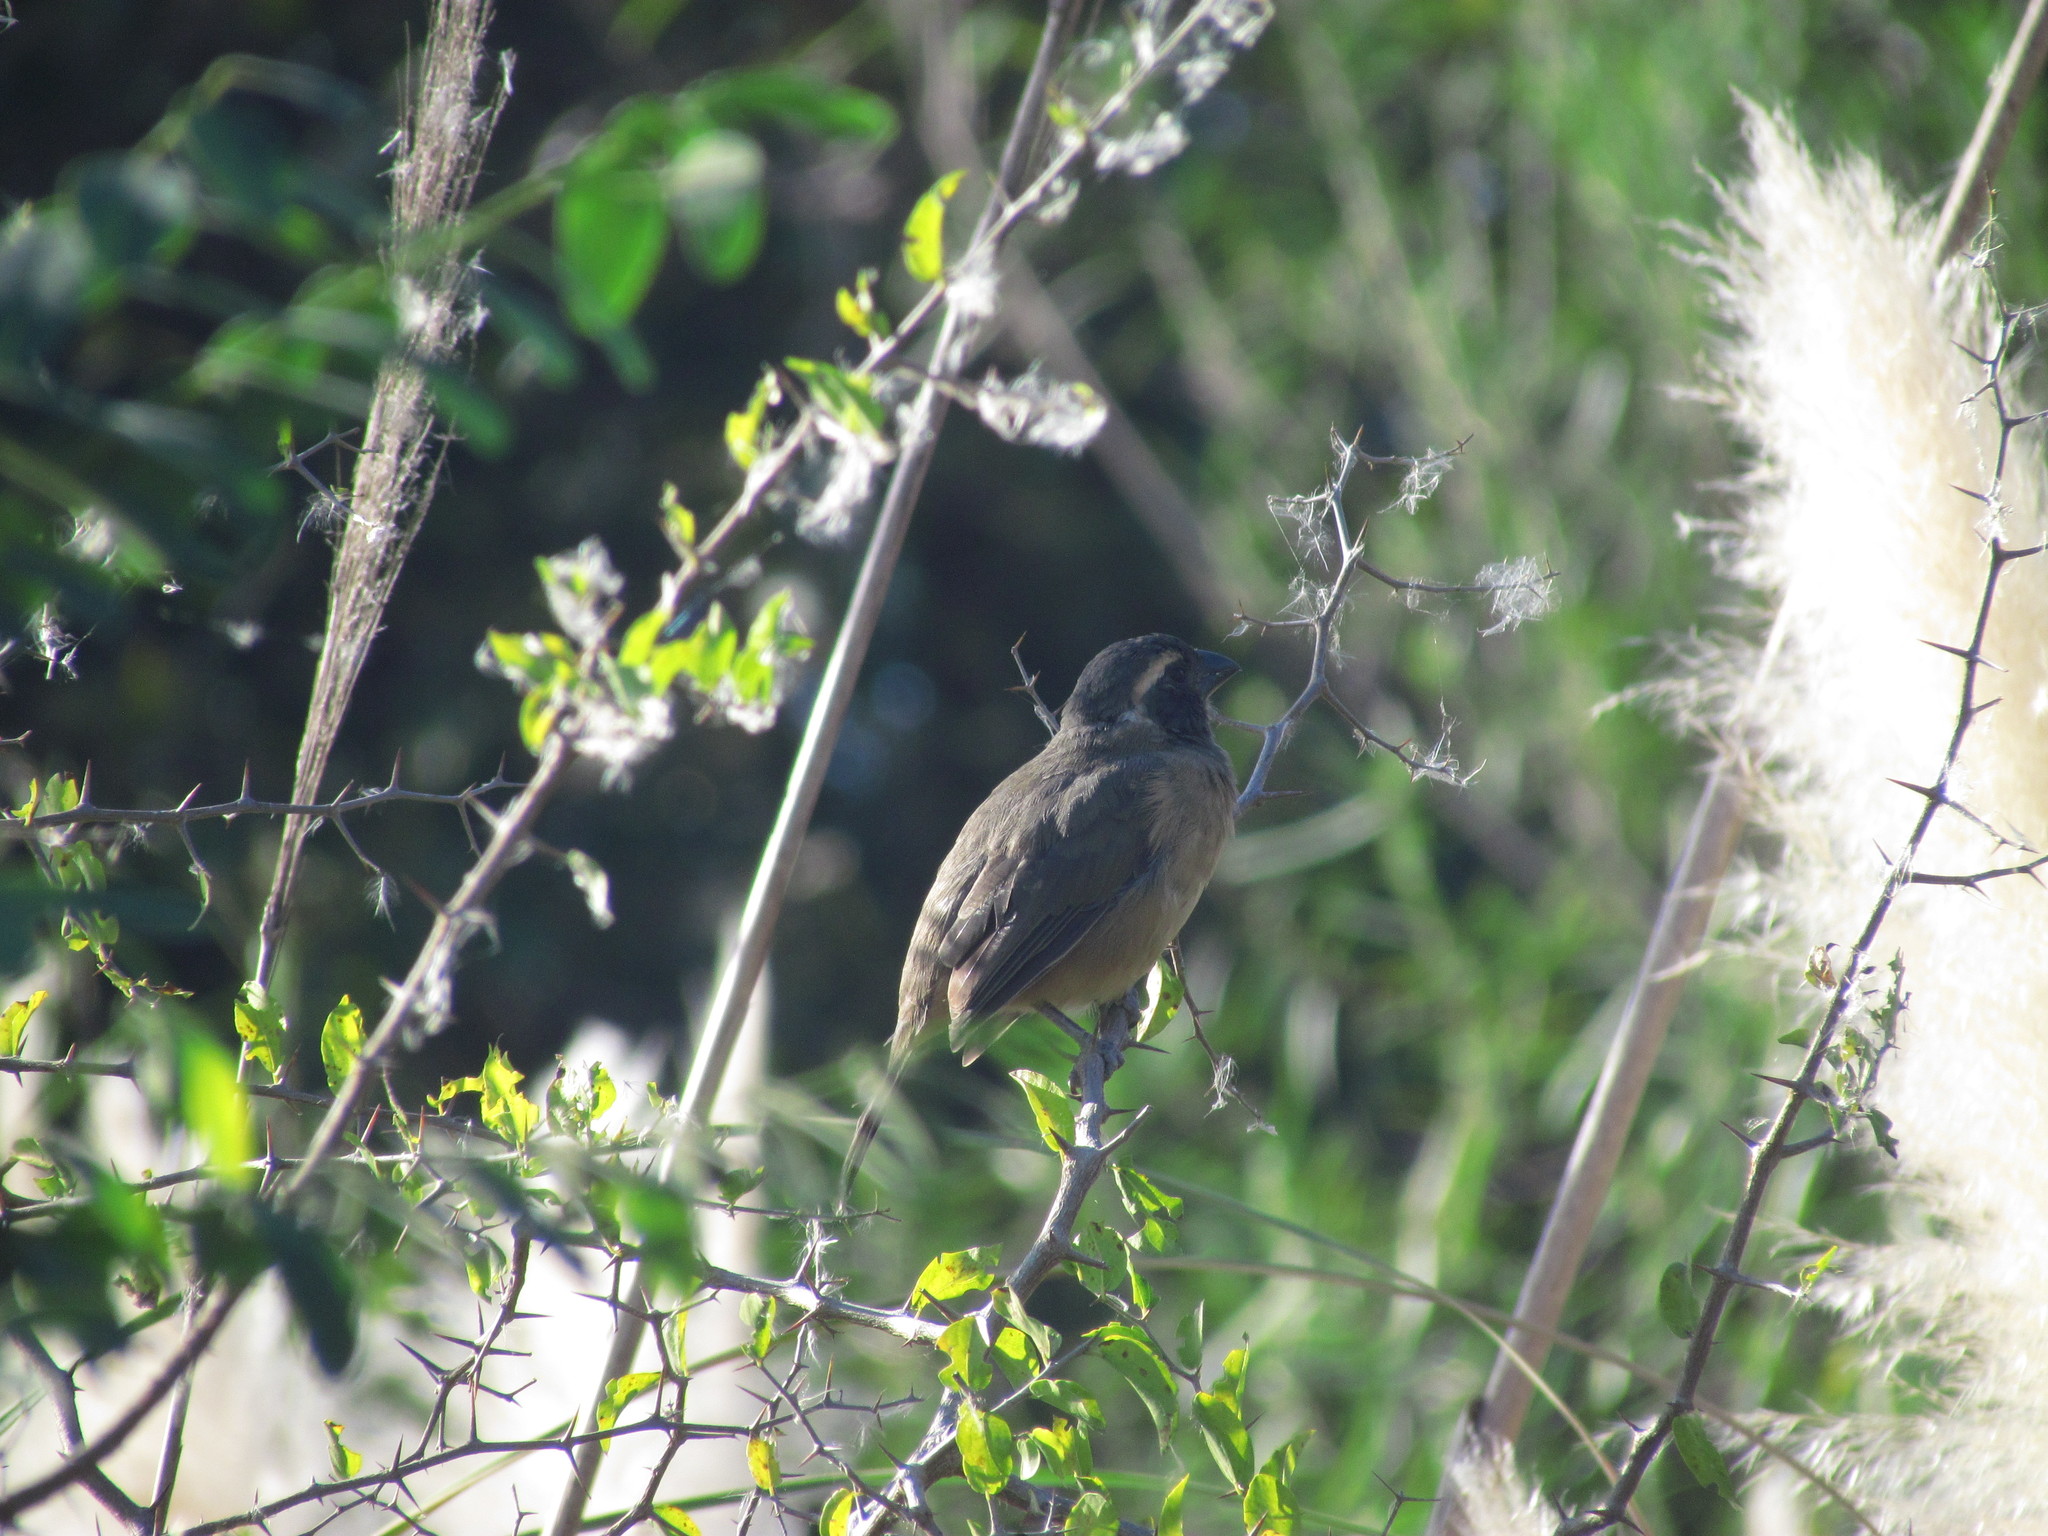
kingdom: Animalia
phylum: Chordata
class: Aves
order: Passeriformes
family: Thraupidae
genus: Saltator
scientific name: Saltator aurantiirostris
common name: Golden-billed saltator
